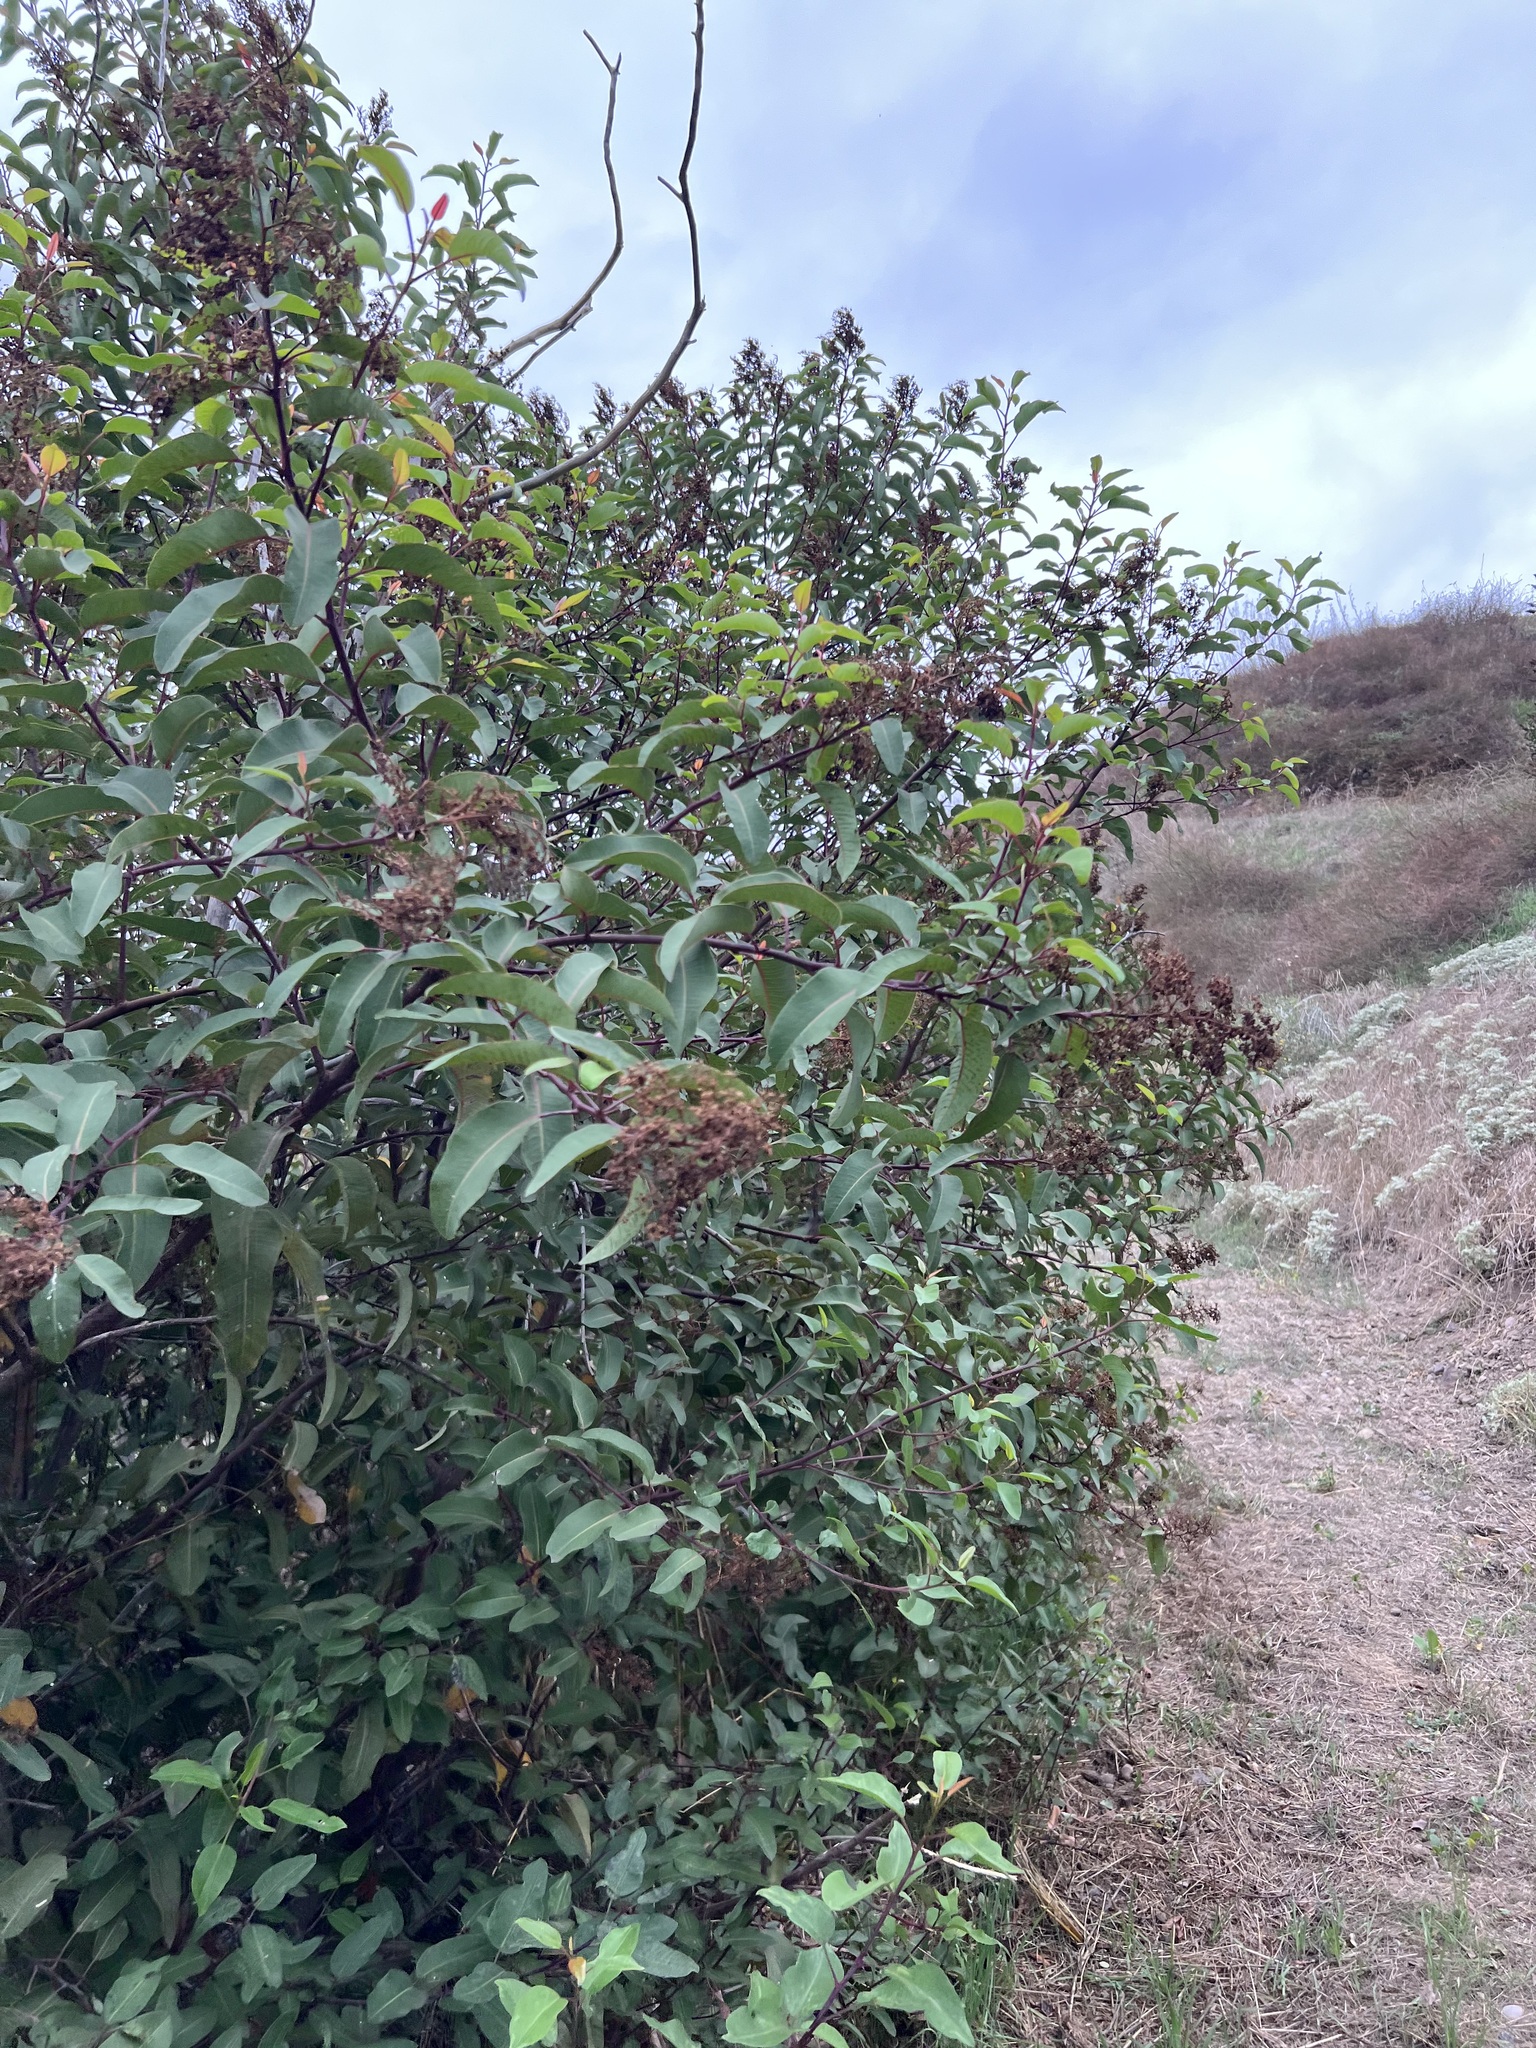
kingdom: Plantae
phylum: Tracheophyta
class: Magnoliopsida
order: Sapindales
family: Anacardiaceae
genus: Malosma
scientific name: Malosma laurina
